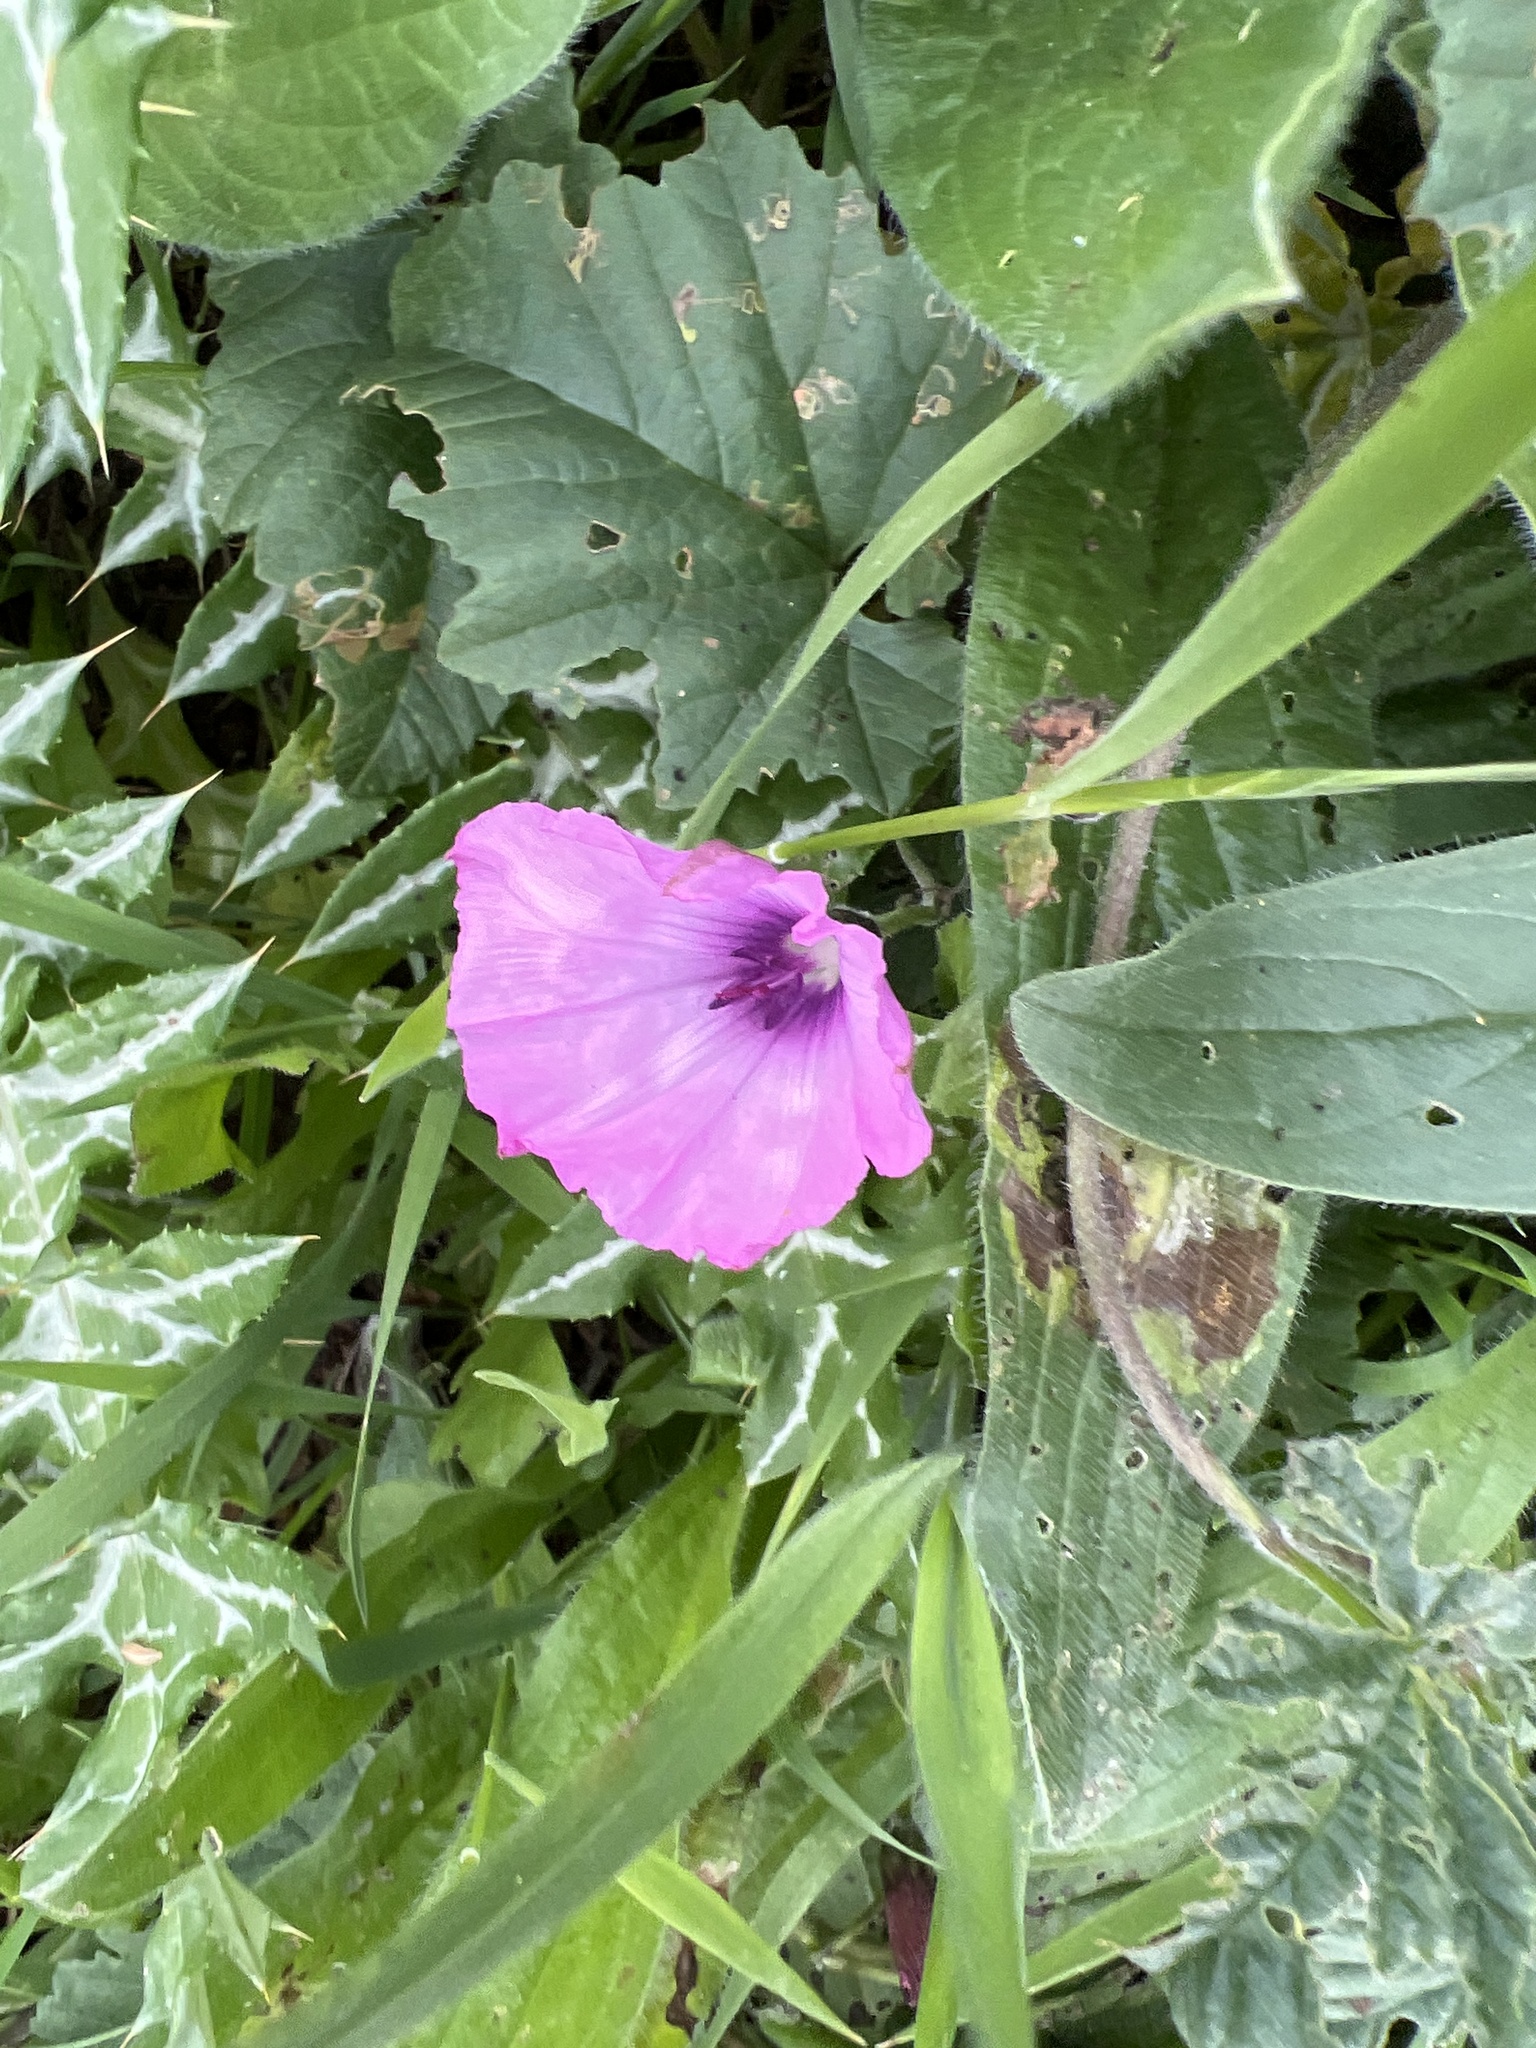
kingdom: Plantae
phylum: Tracheophyta
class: Magnoliopsida
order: Solanales
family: Convolvulaceae
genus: Convolvulus
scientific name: Convolvulus althaeoides
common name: Mallow bindweed
